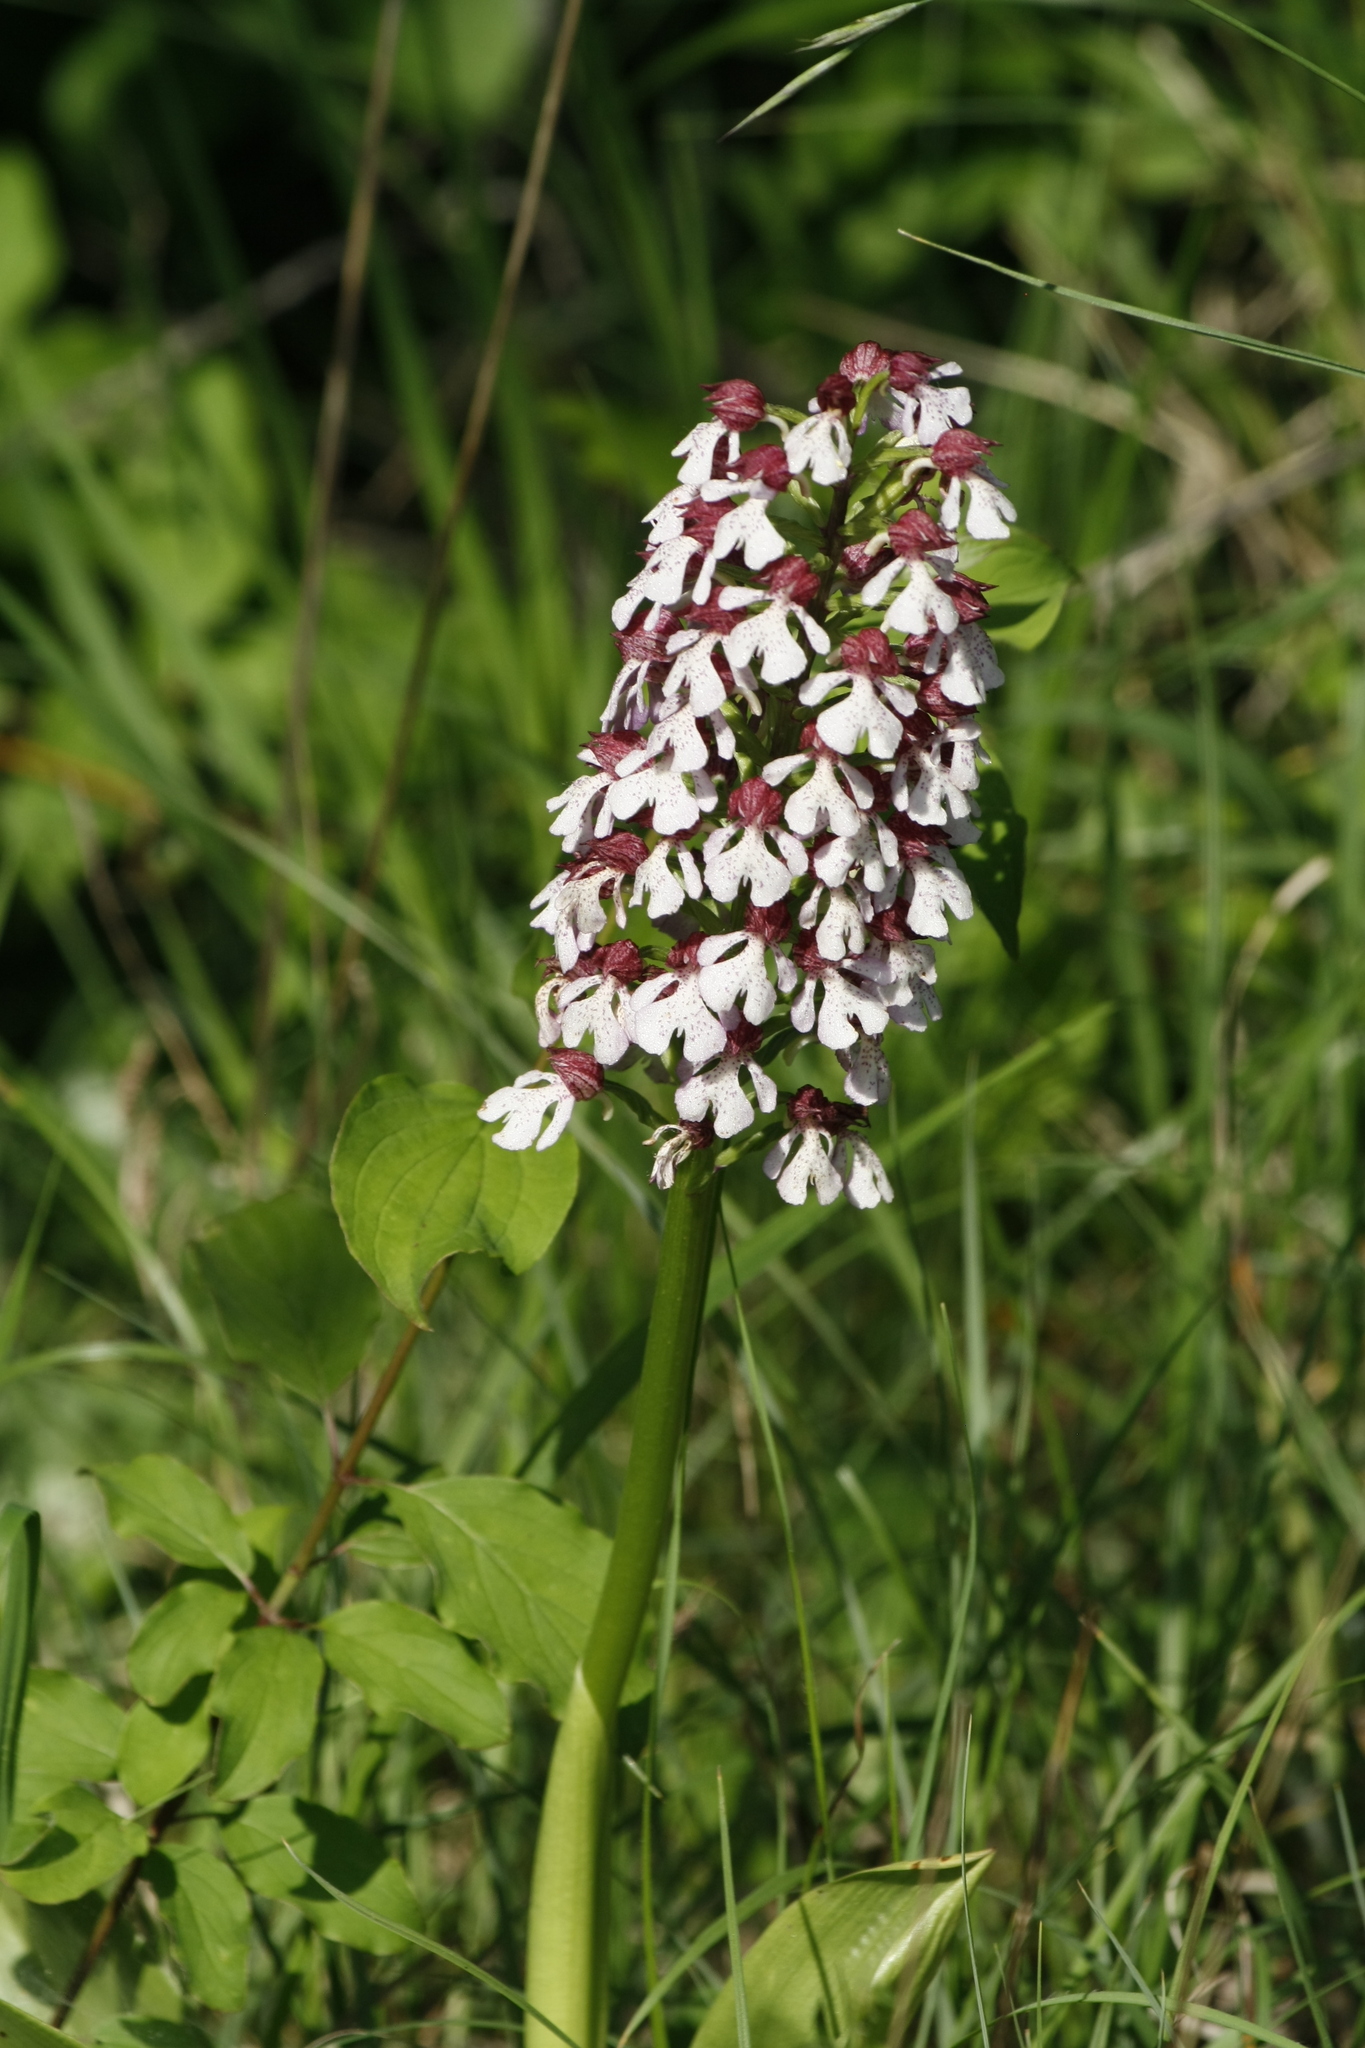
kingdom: Plantae
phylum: Tracheophyta
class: Liliopsida
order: Asparagales
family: Orchidaceae
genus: Orchis
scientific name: Orchis purpurea
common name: Lady orchid
